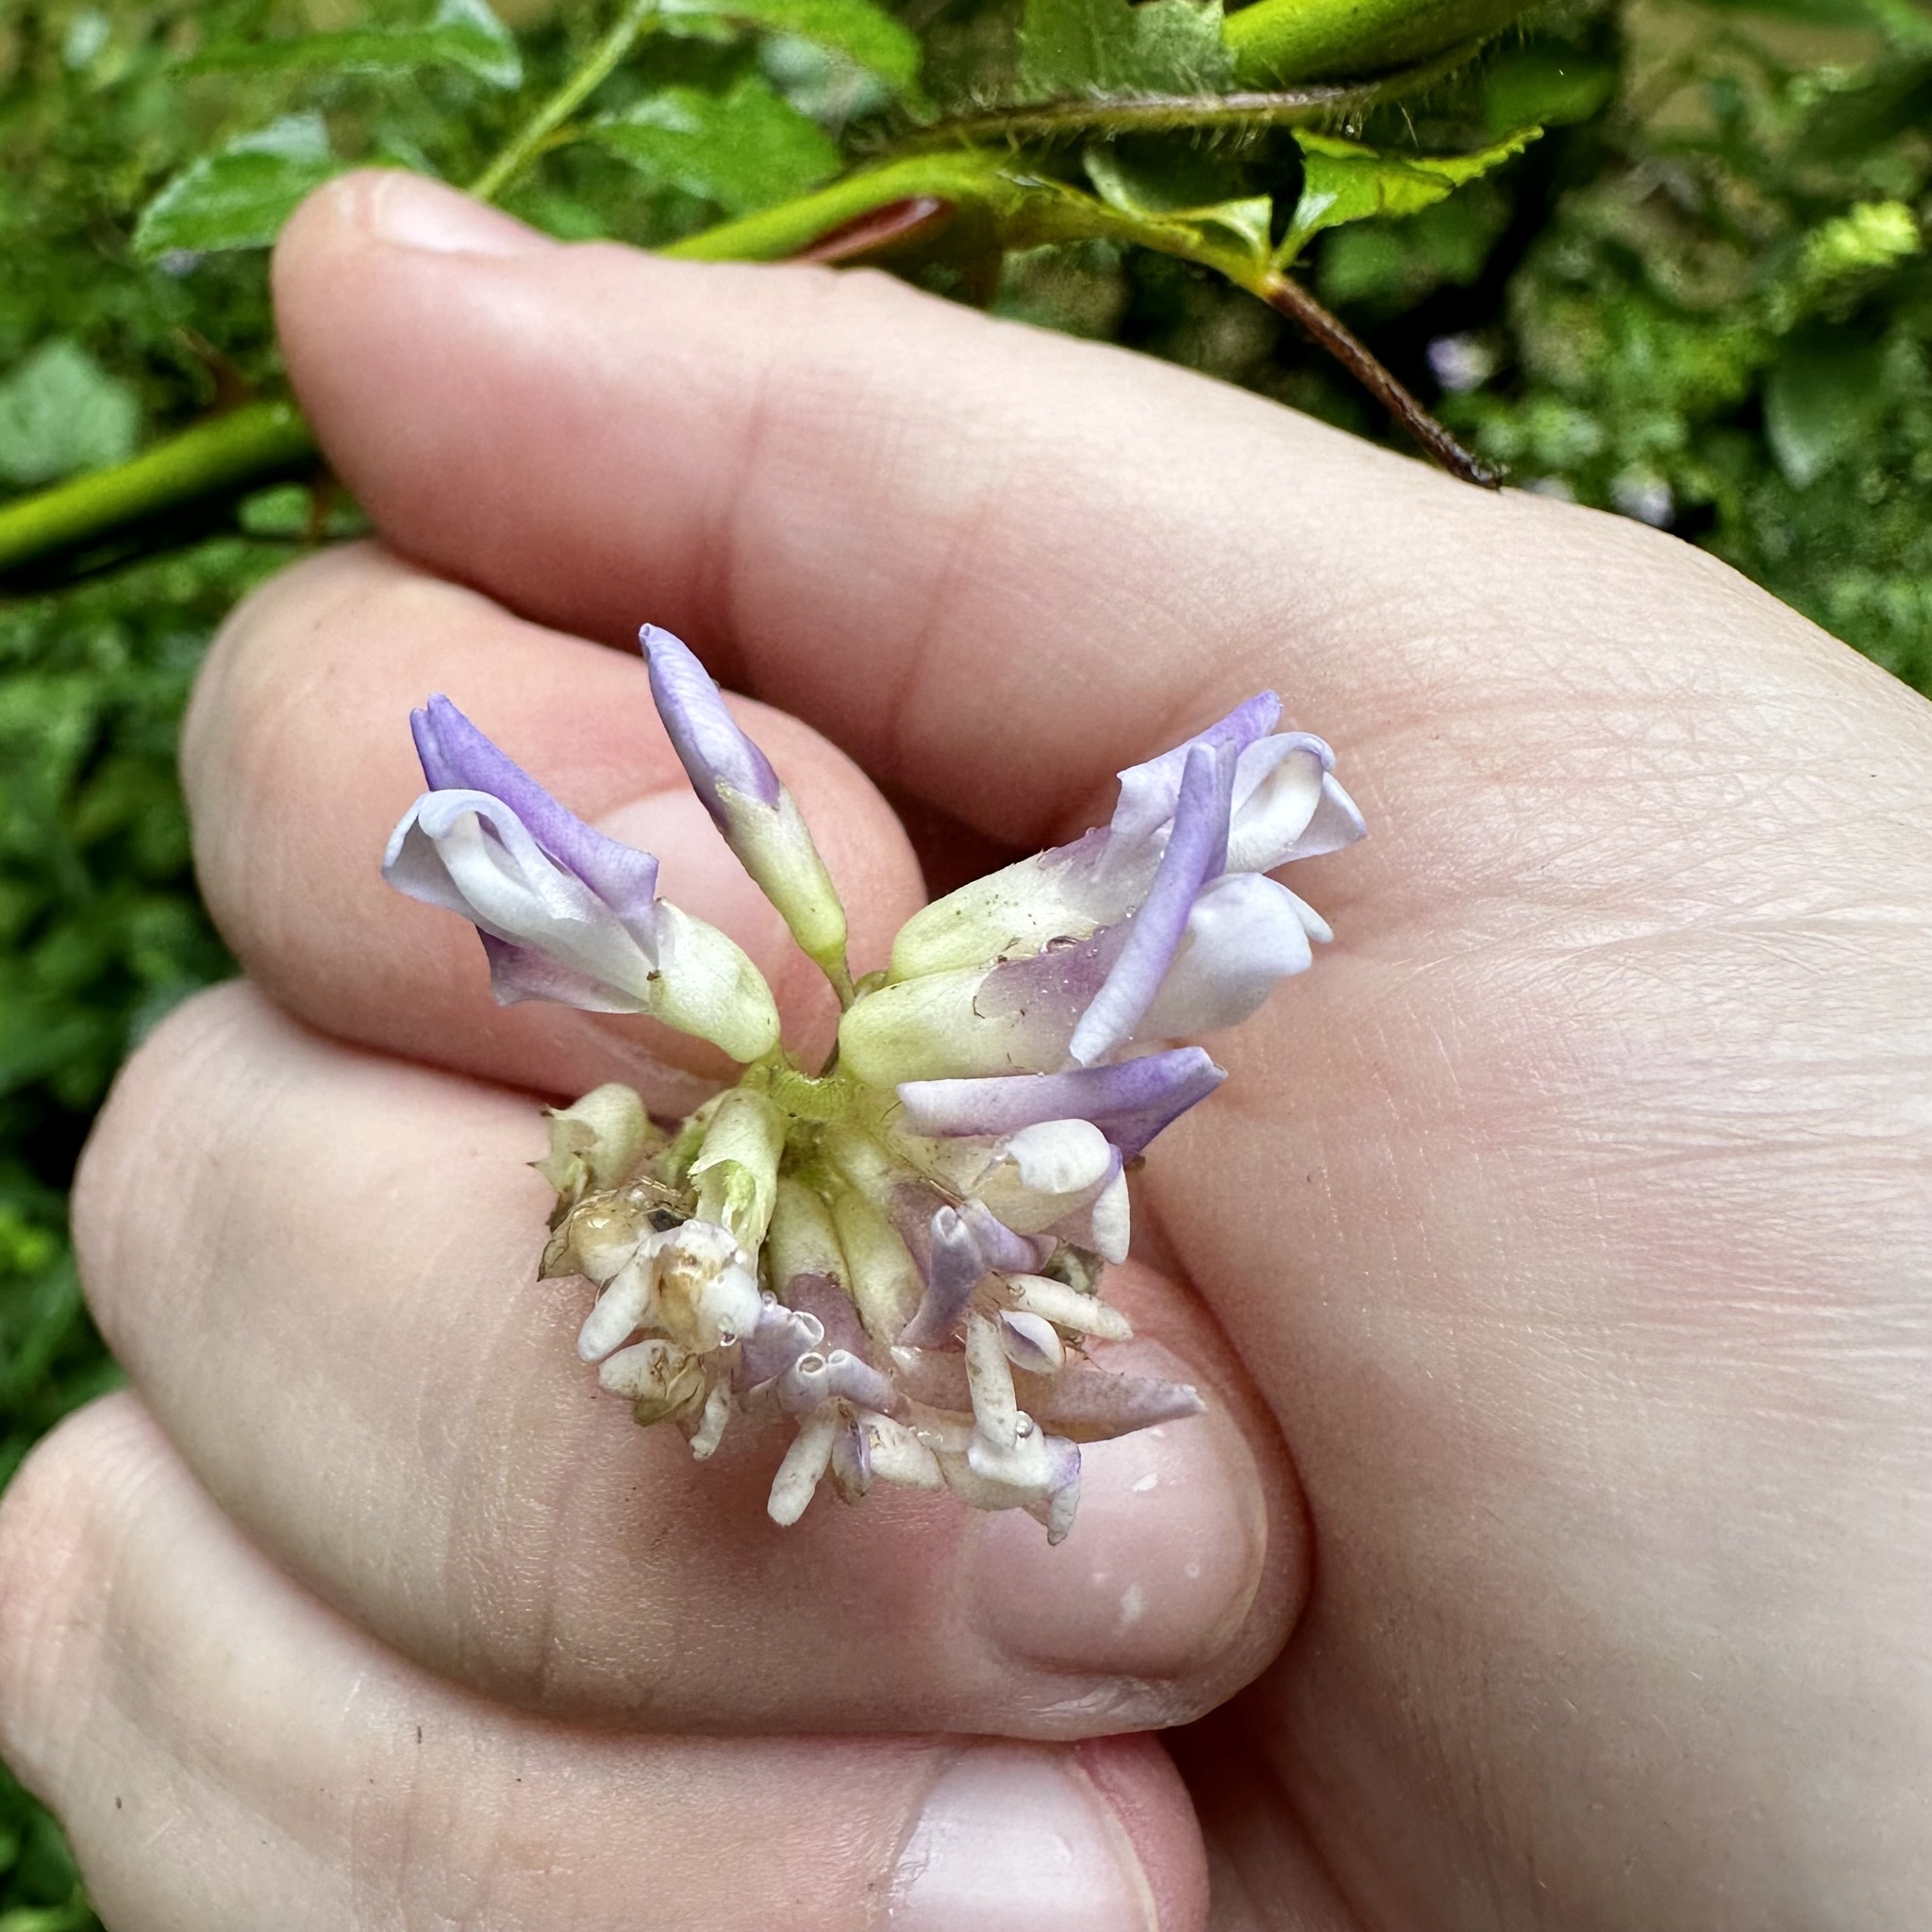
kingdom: Plantae
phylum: Tracheophyta
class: Magnoliopsida
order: Fabales
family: Fabaceae
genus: Amphicarpaea
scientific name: Amphicarpaea bracteata
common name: American hog peanut
